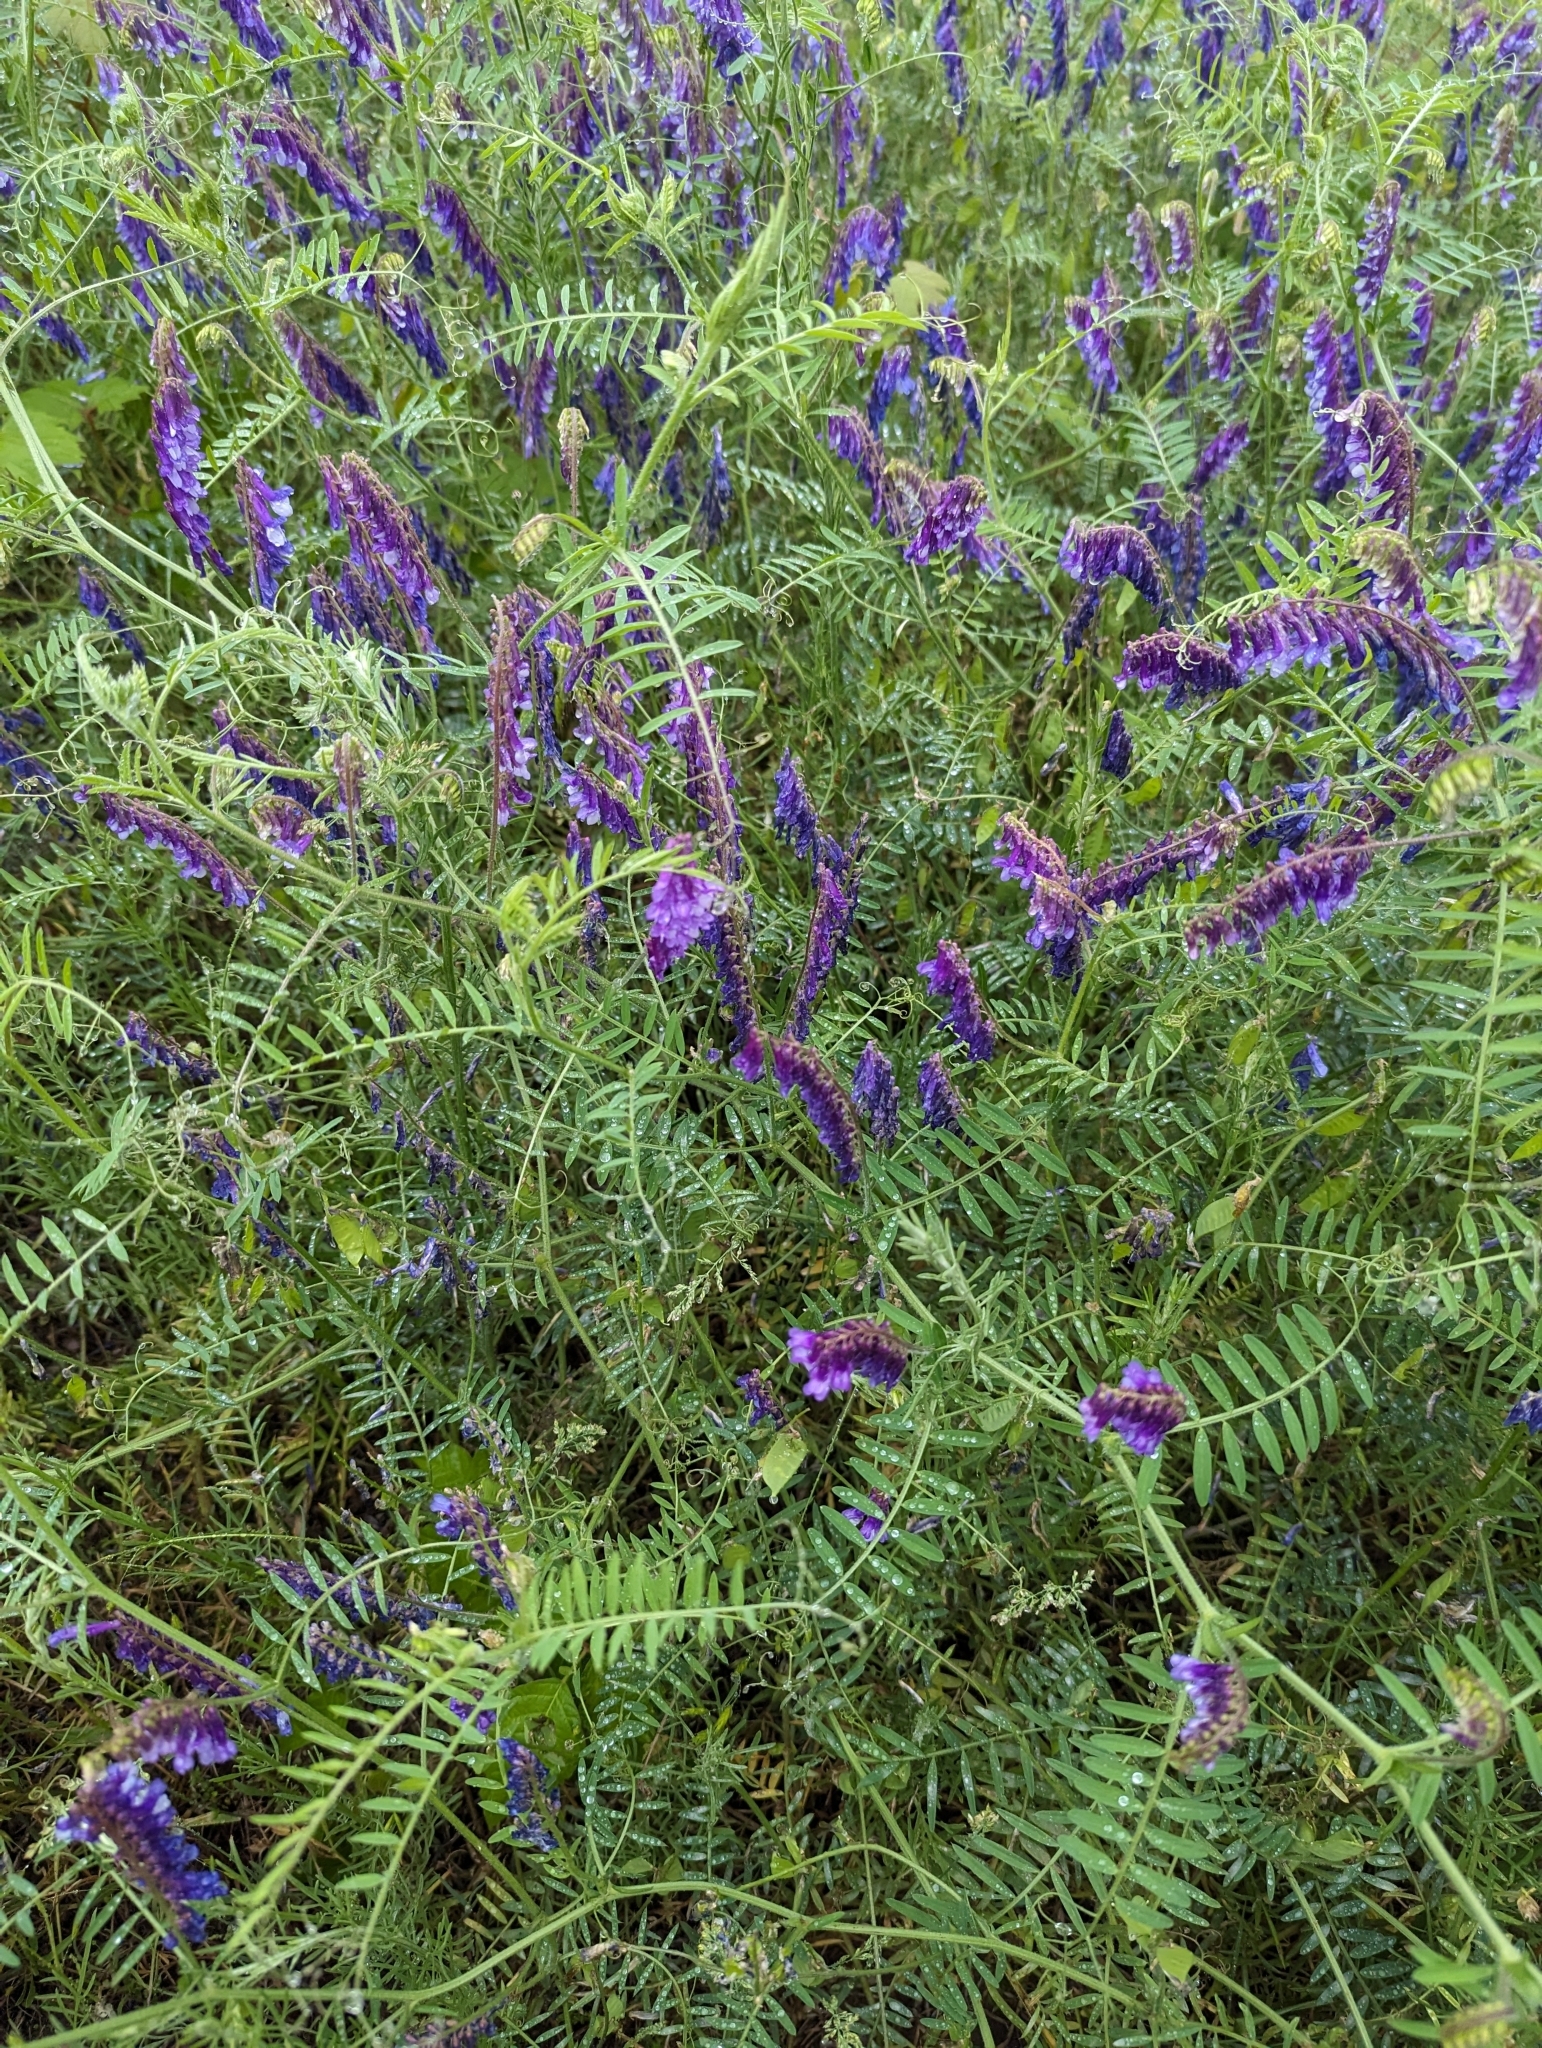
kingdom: Plantae
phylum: Tracheophyta
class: Magnoliopsida
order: Fabales
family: Fabaceae
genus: Vicia
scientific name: Vicia villosa
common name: Fodder vetch
